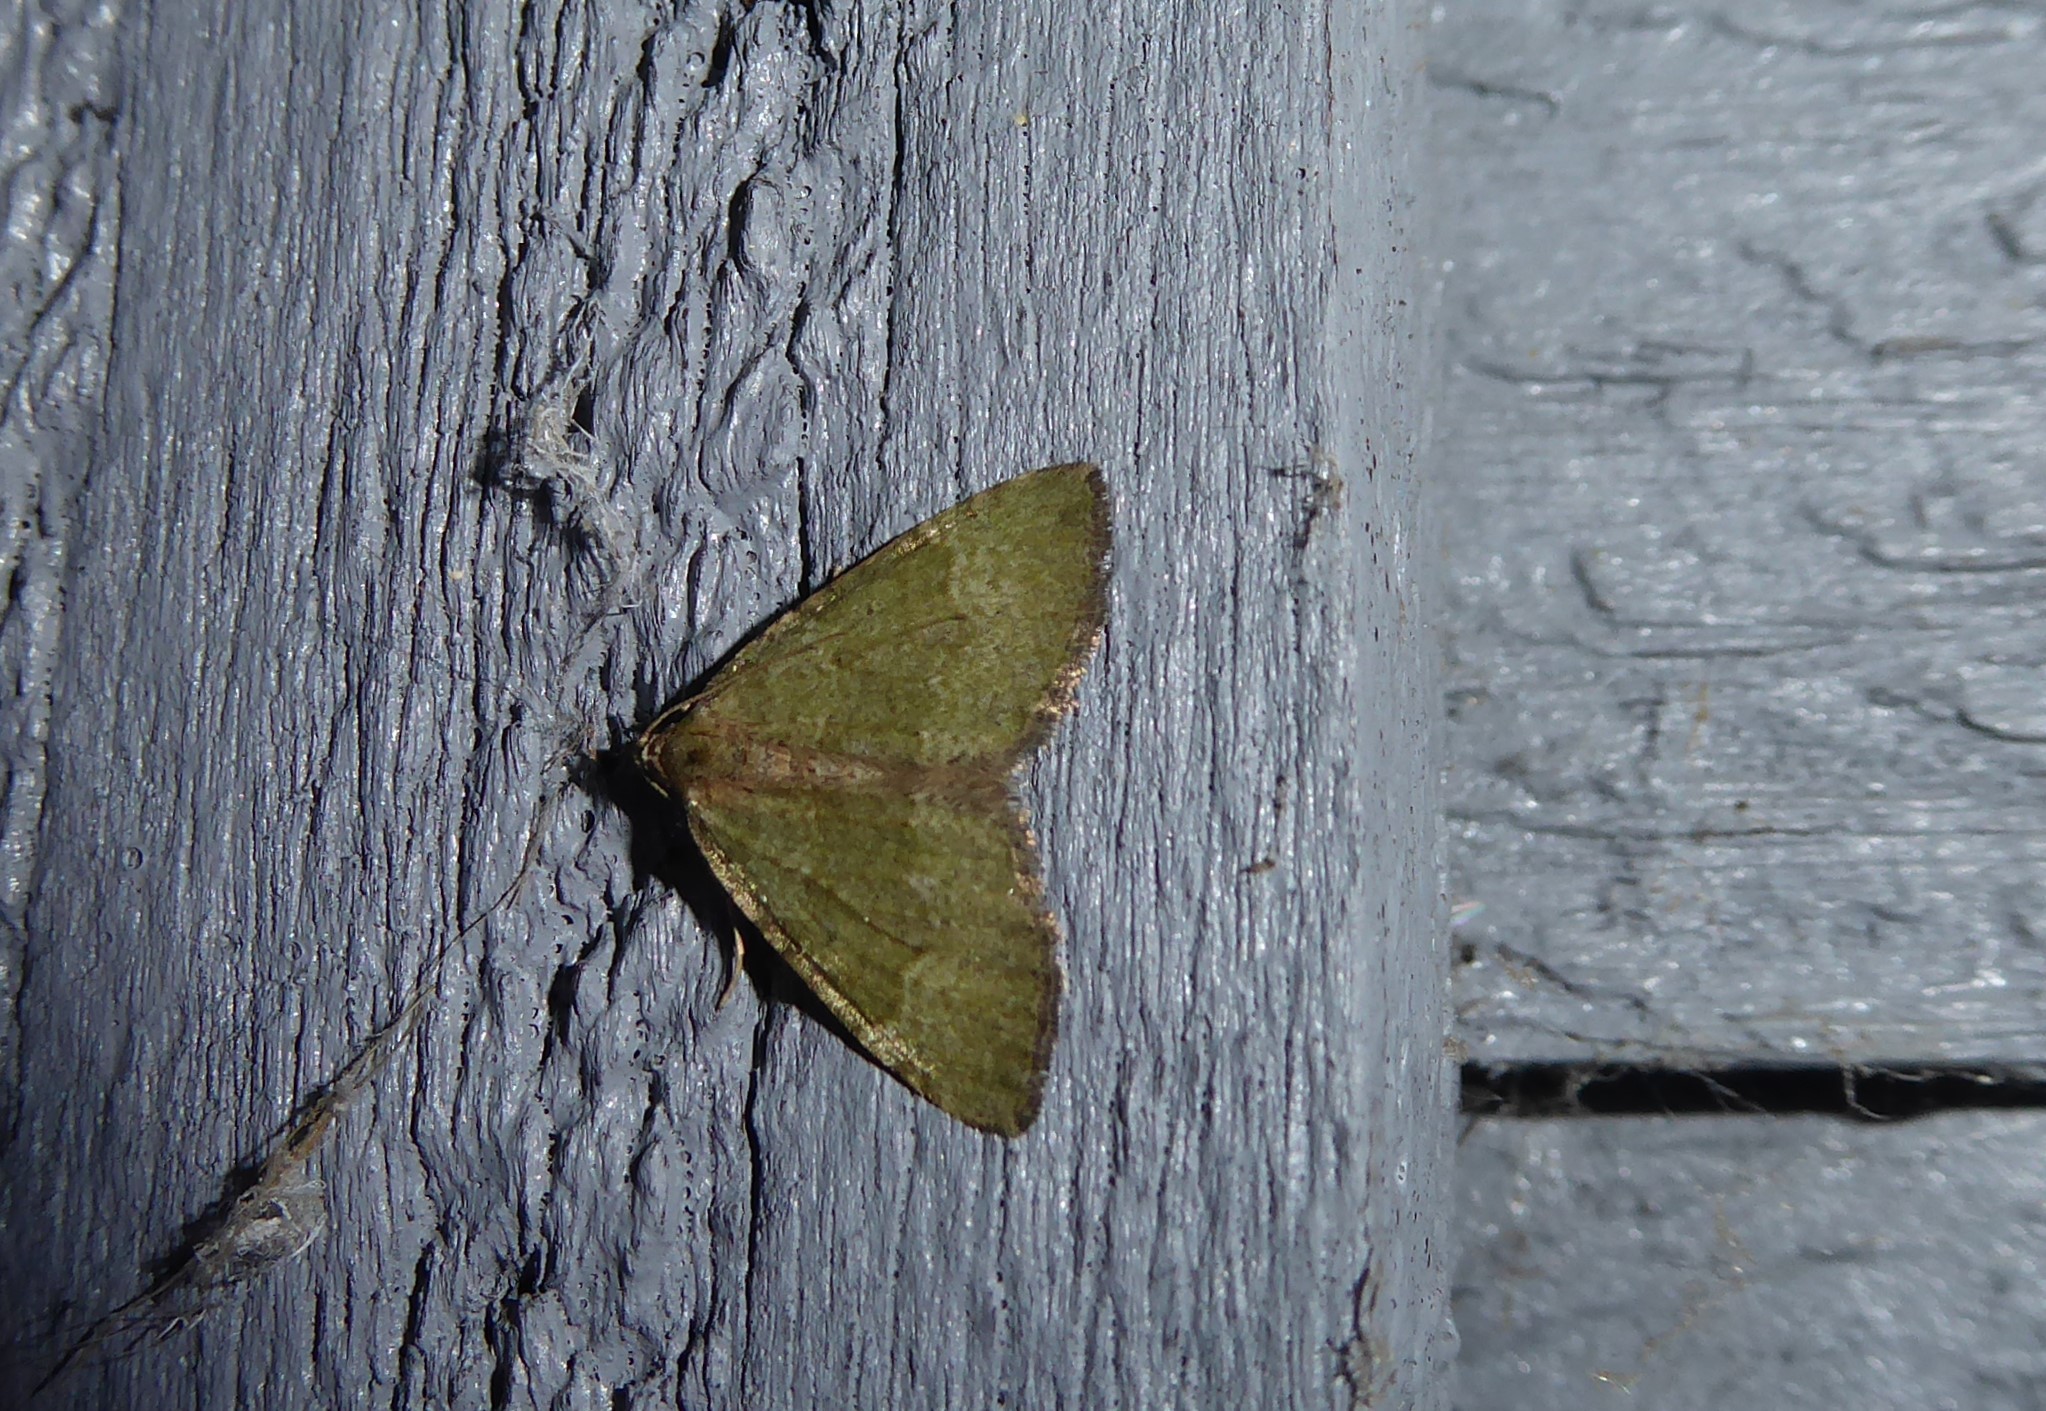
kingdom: Animalia
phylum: Arthropoda
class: Insecta
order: Lepidoptera
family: Geometridae
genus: Epyaxa
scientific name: Epyaxa rosearia
